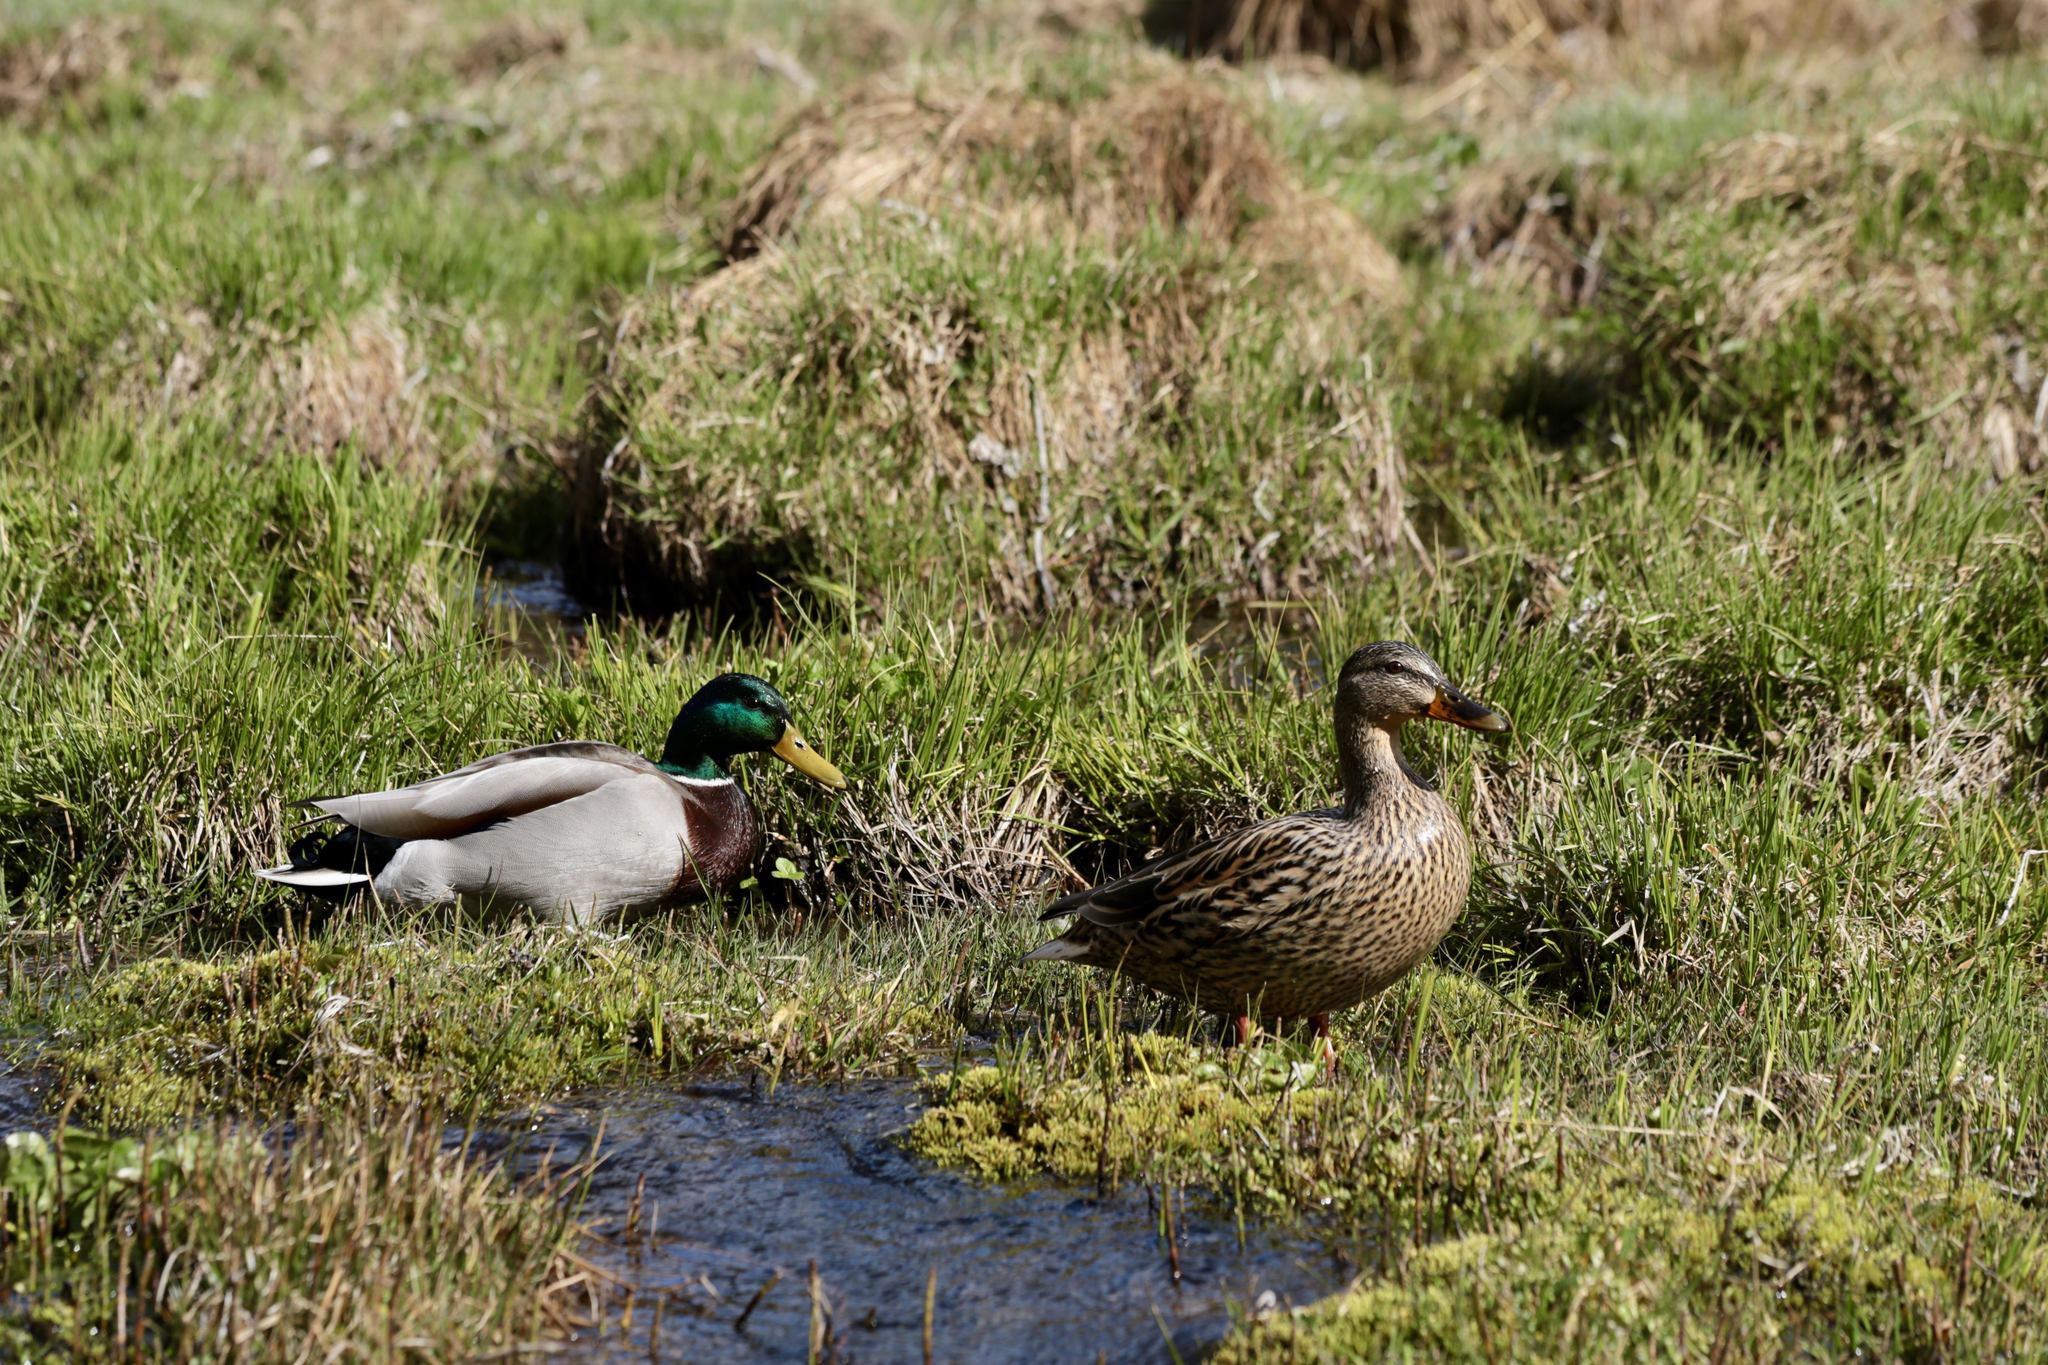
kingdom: Animalia
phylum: Chordata
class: Aves
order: Anseriformes
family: Anatidae
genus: Anas
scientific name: Anas platyrhynchos
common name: Mallard
